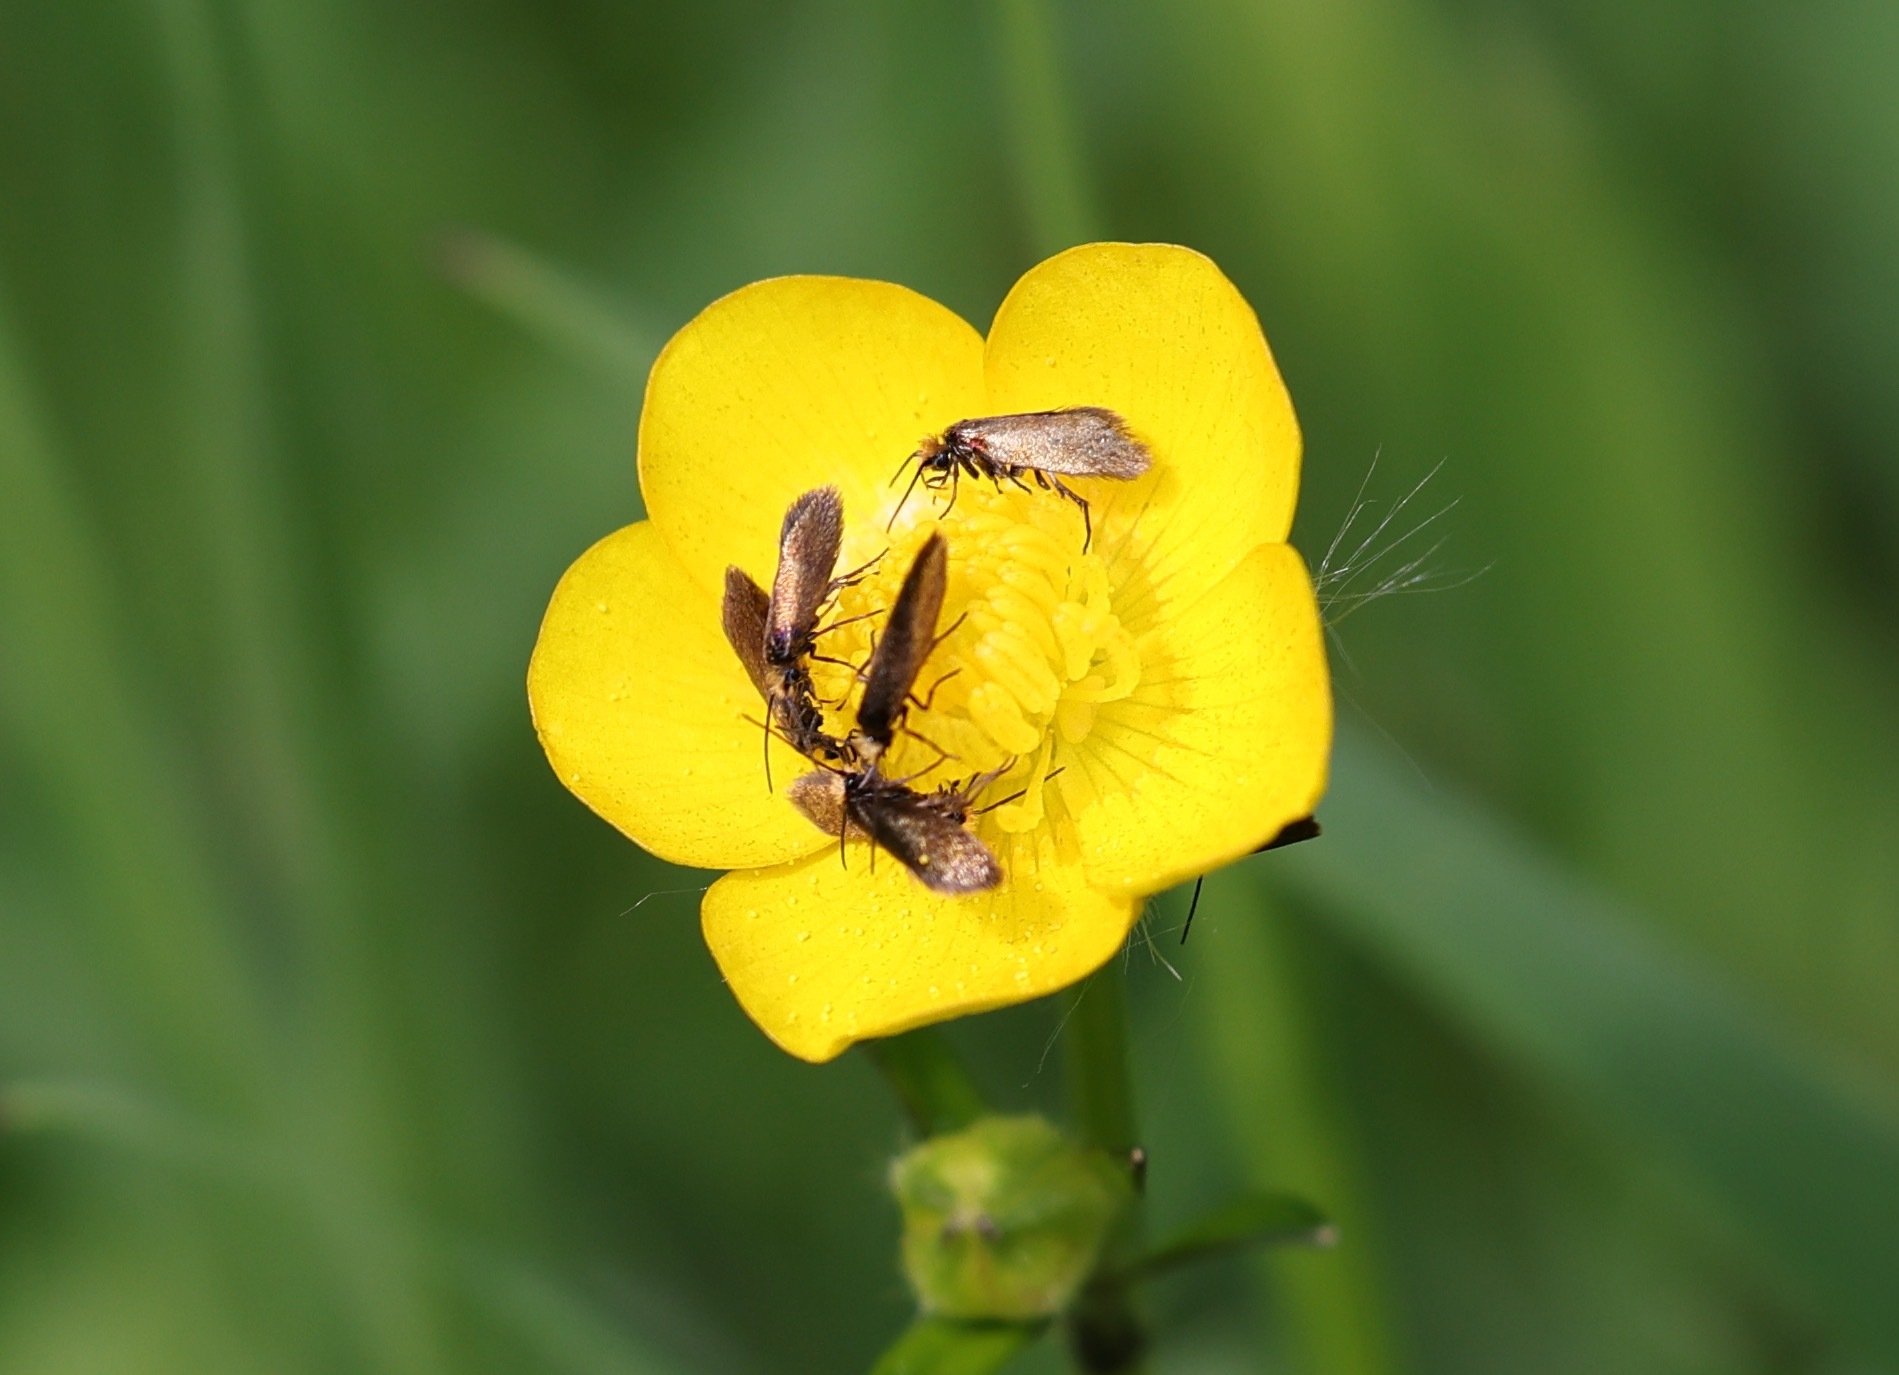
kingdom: Animalia
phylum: Arthropoda
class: Insecta
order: Lepidoptera
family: Micropterigidae
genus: Micropterix
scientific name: Micropterix calthella
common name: Plain gold
